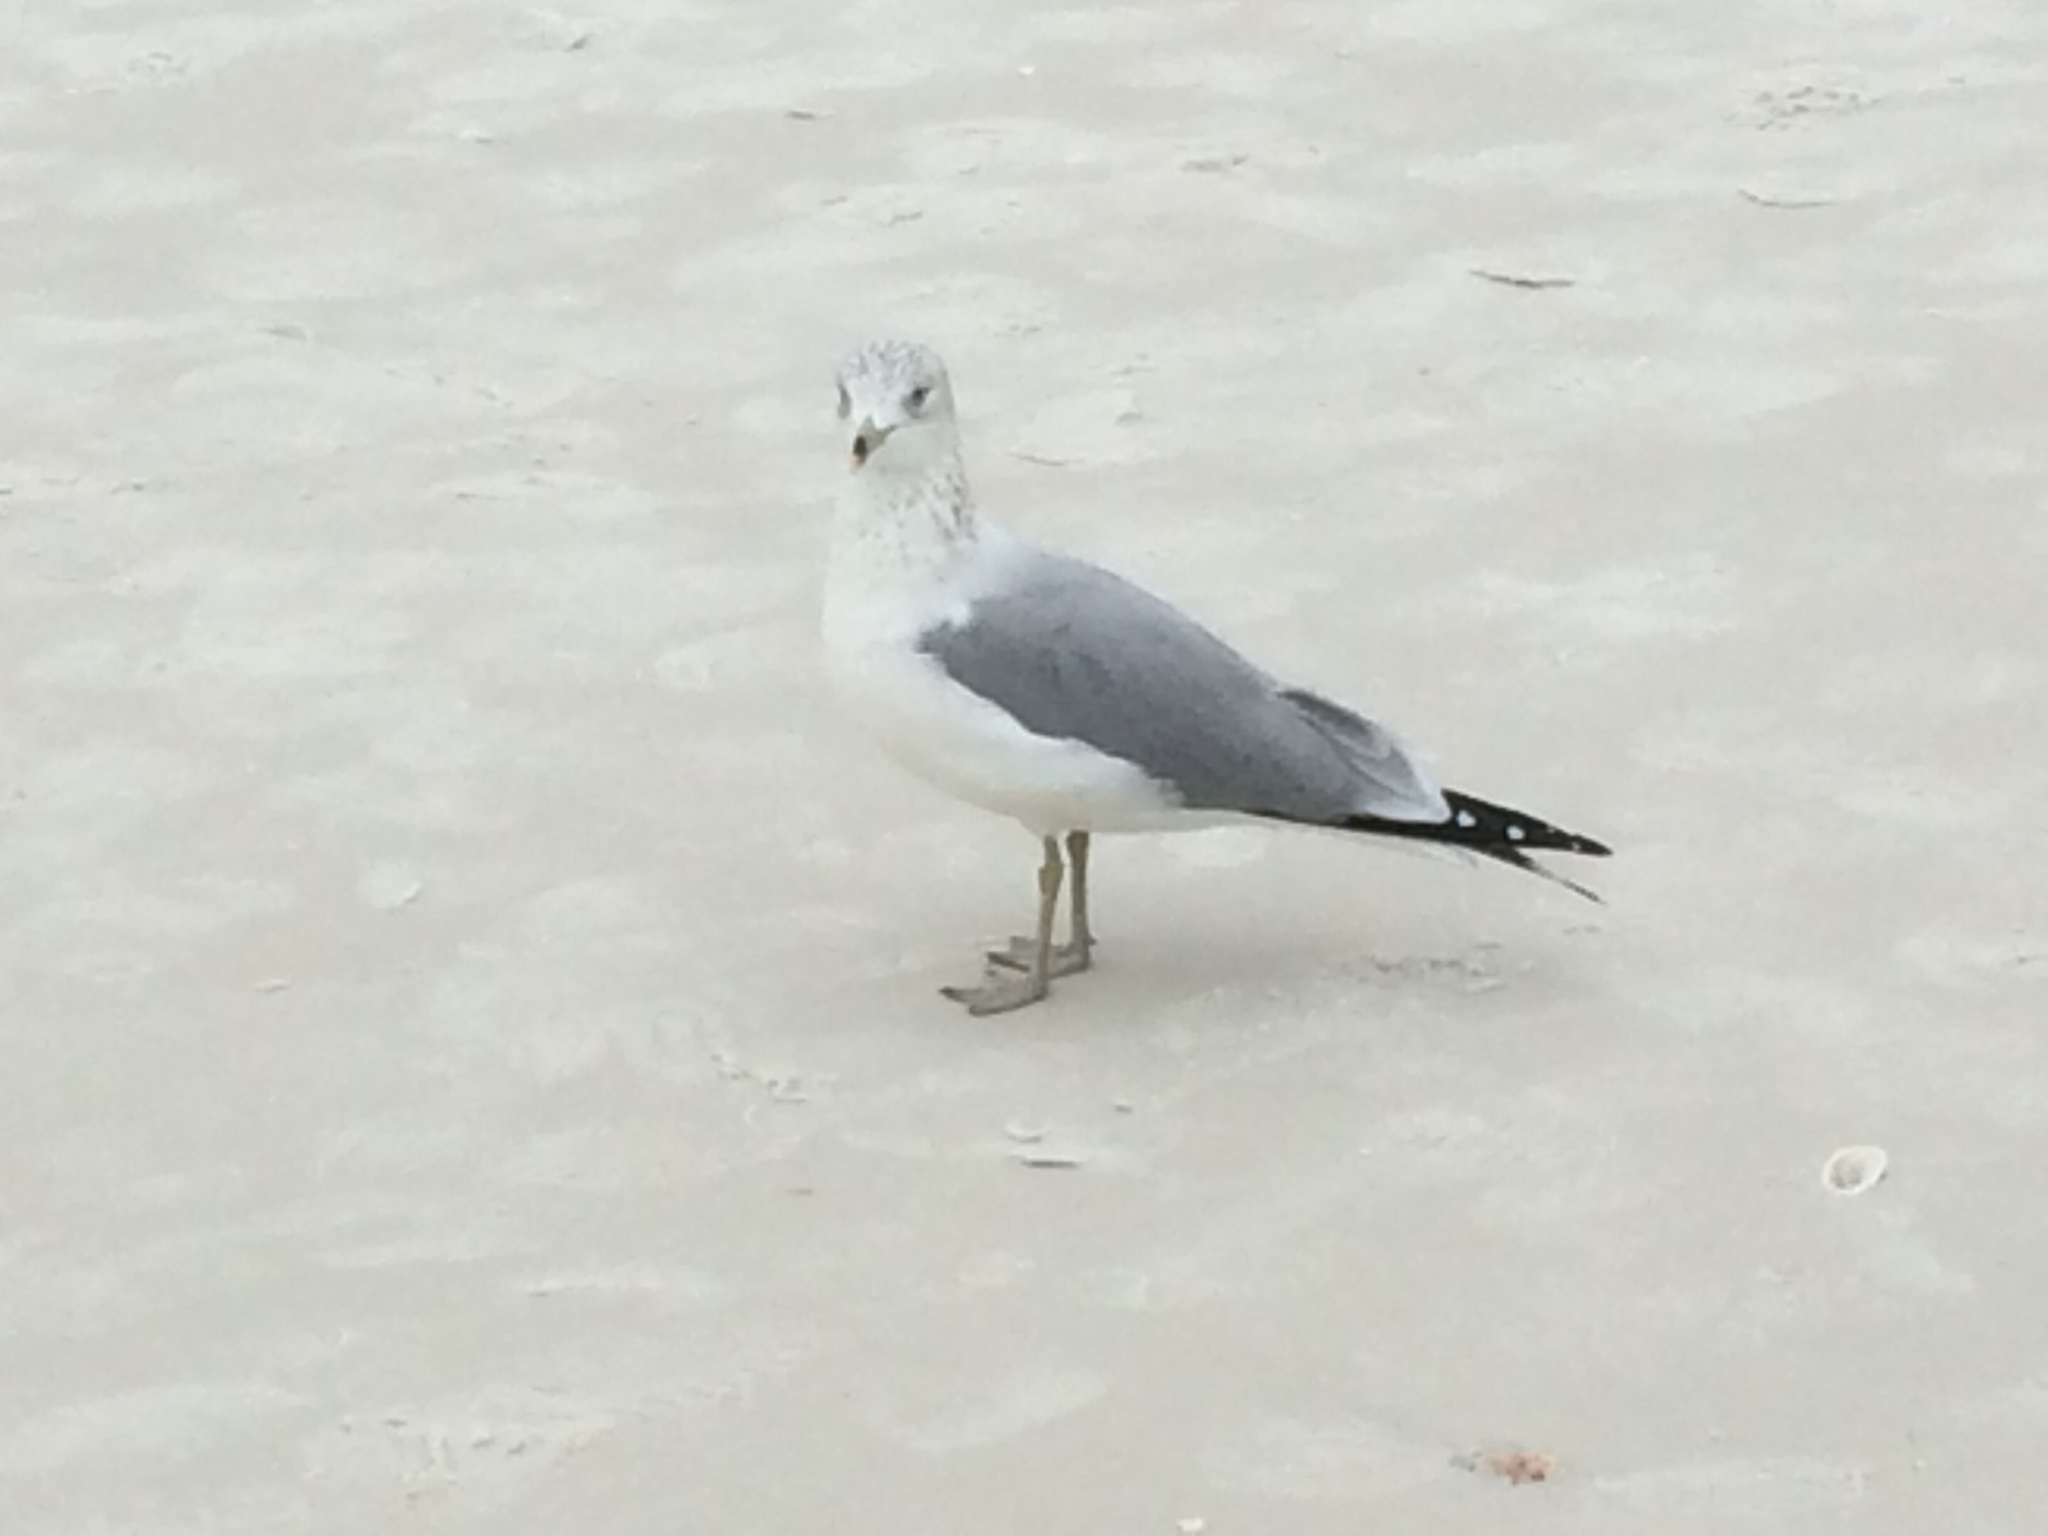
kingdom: Animalia
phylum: Chordata
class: Aves
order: Charadriiformes
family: Laridae
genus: Larus
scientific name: Larus delawarensis
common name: Ring-billed gull
